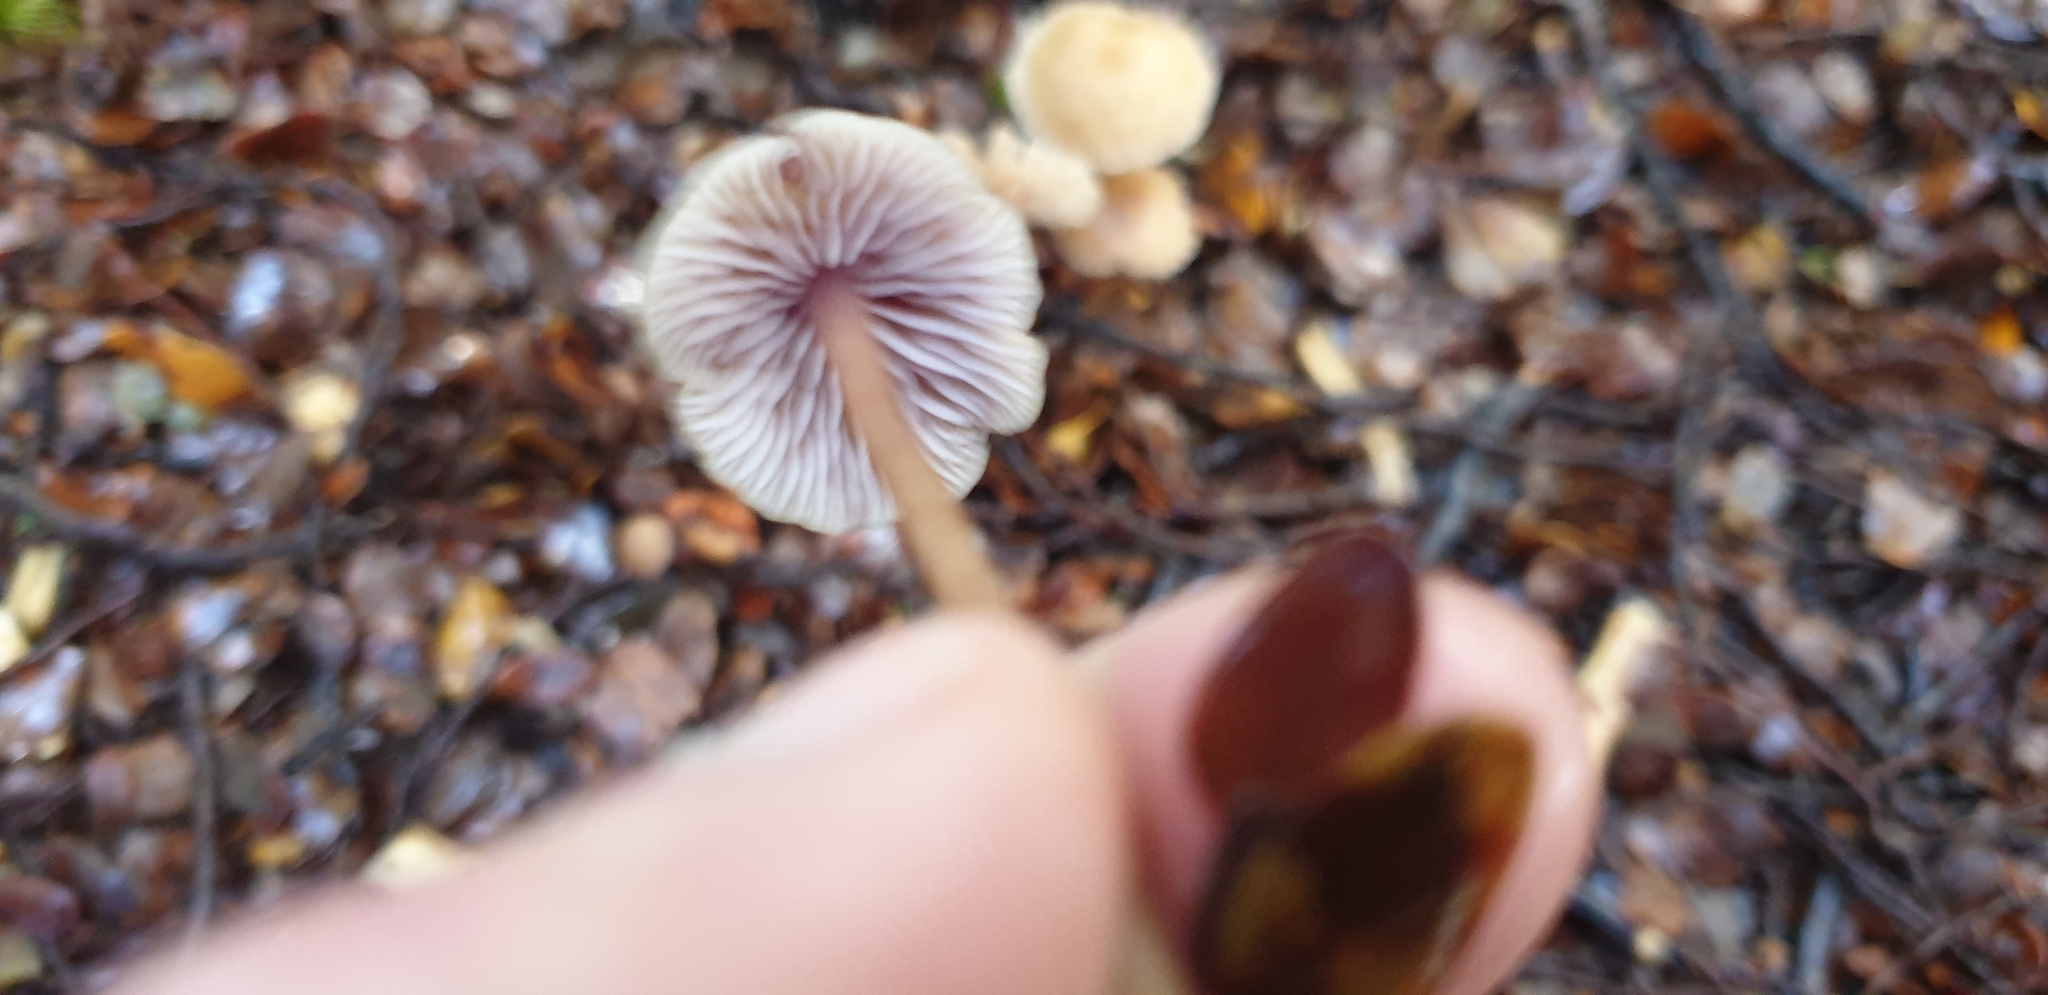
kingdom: Fungi
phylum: Basidiomycota
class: Agaricomycetes
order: Agaricales
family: Hydnangiaceae
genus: Laccaria
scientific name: Laccaria masoniae
